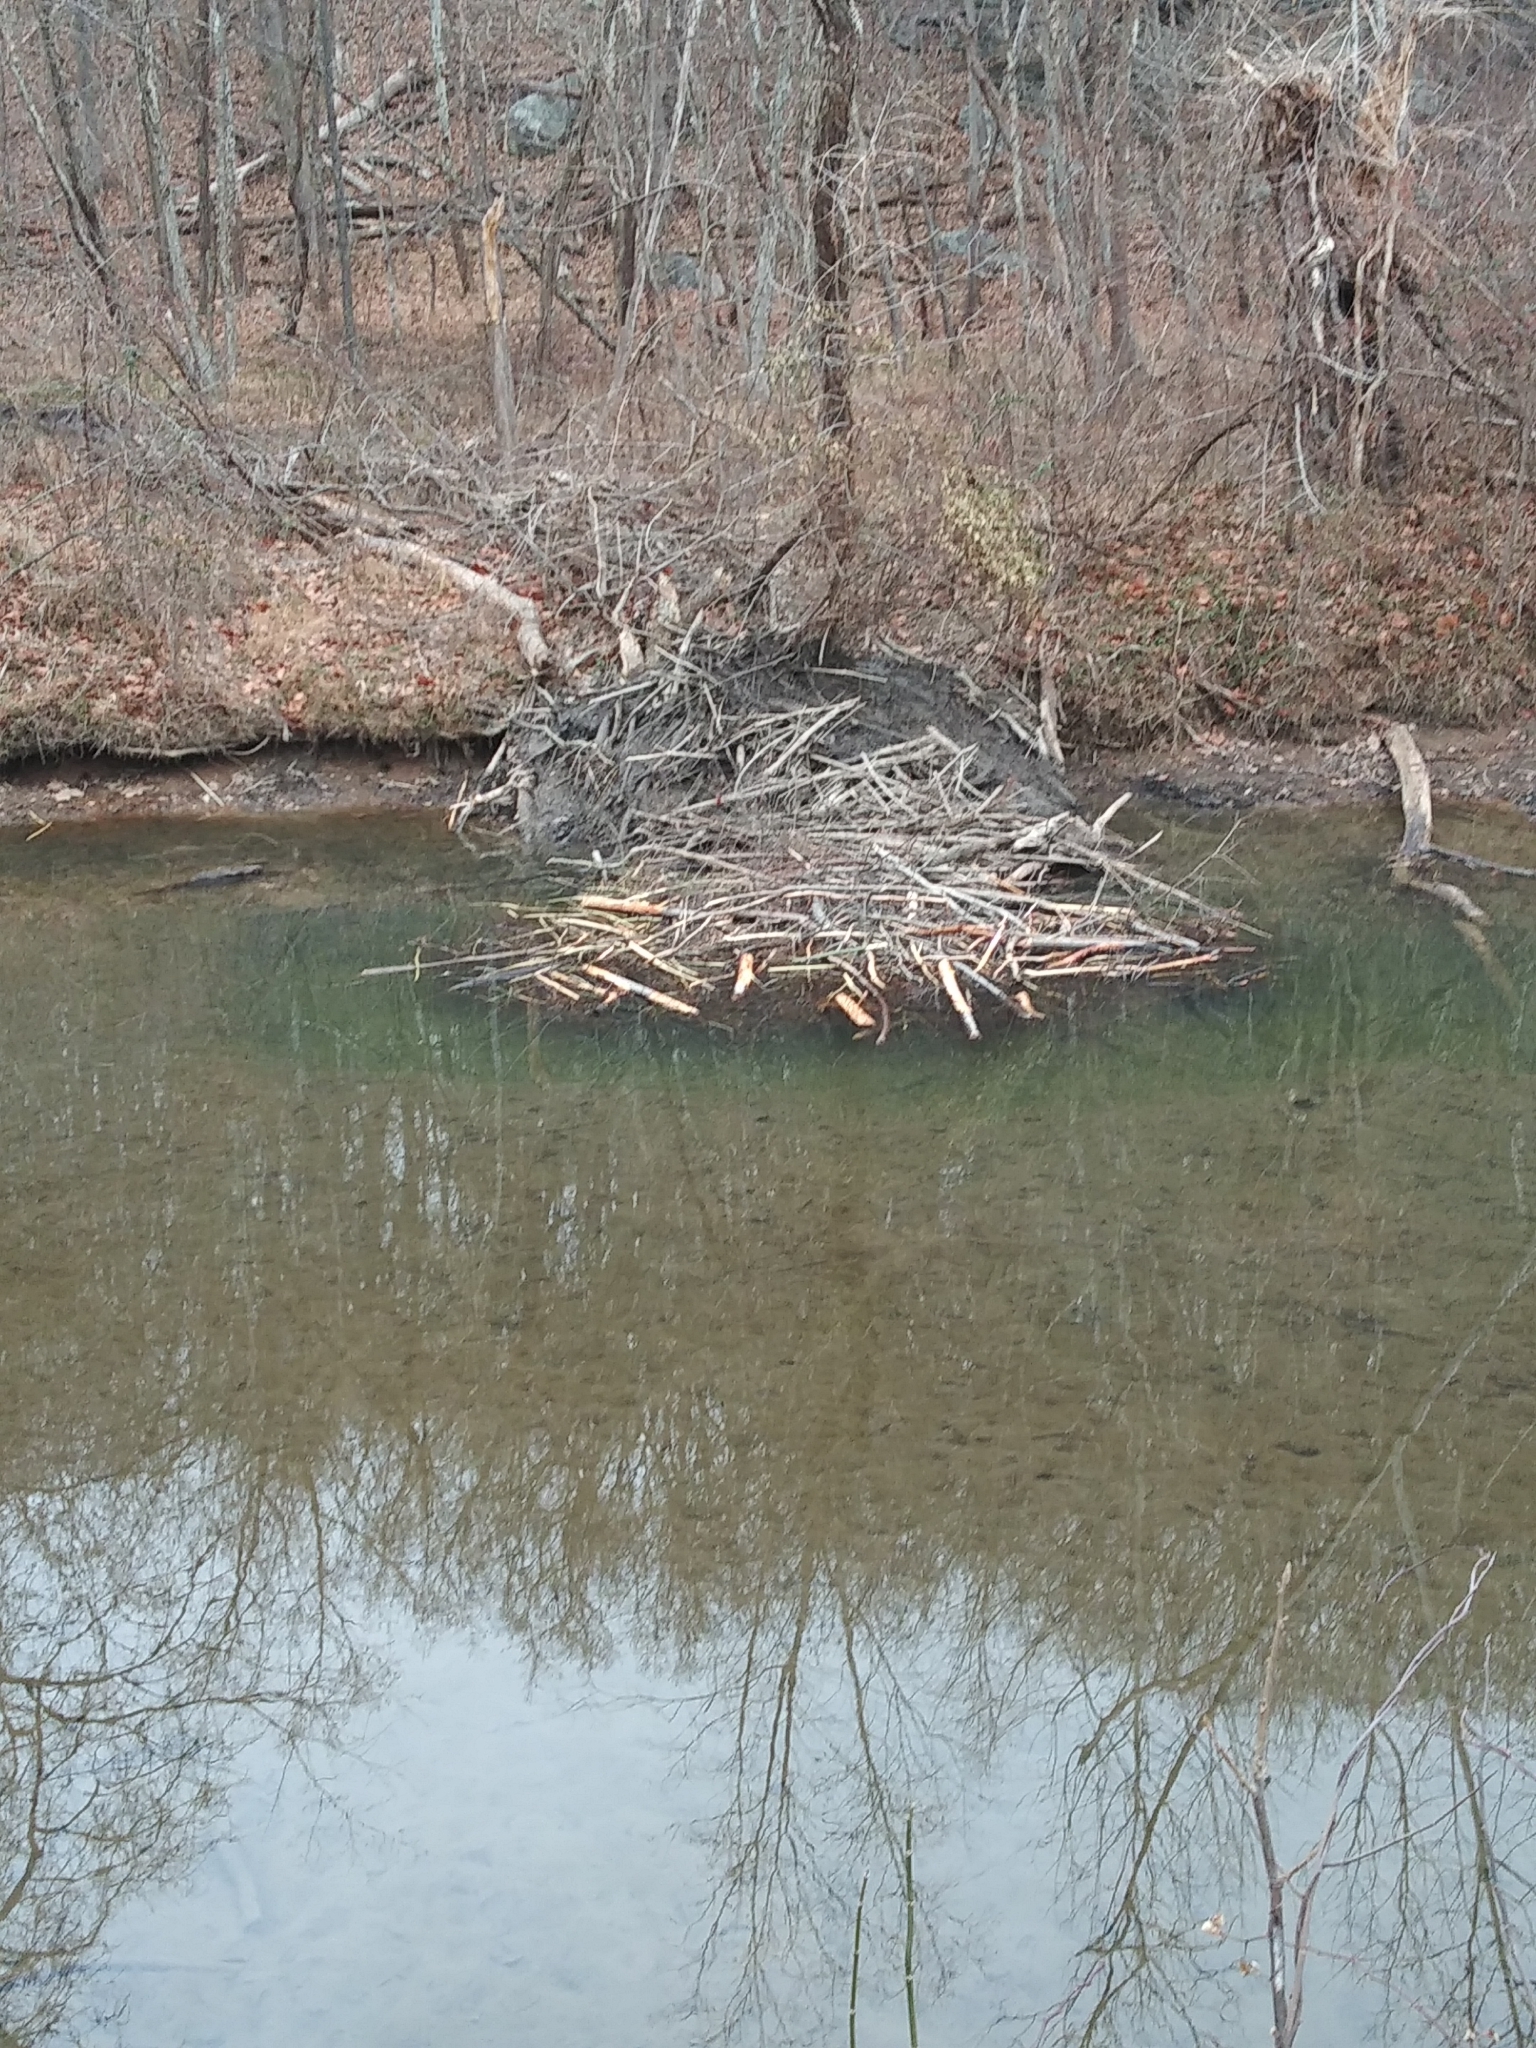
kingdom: Animalia
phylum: Chordata
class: Mammalia
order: Rodentia
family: Castoridae
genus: Castor
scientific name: Castor canadensis
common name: American beaver
